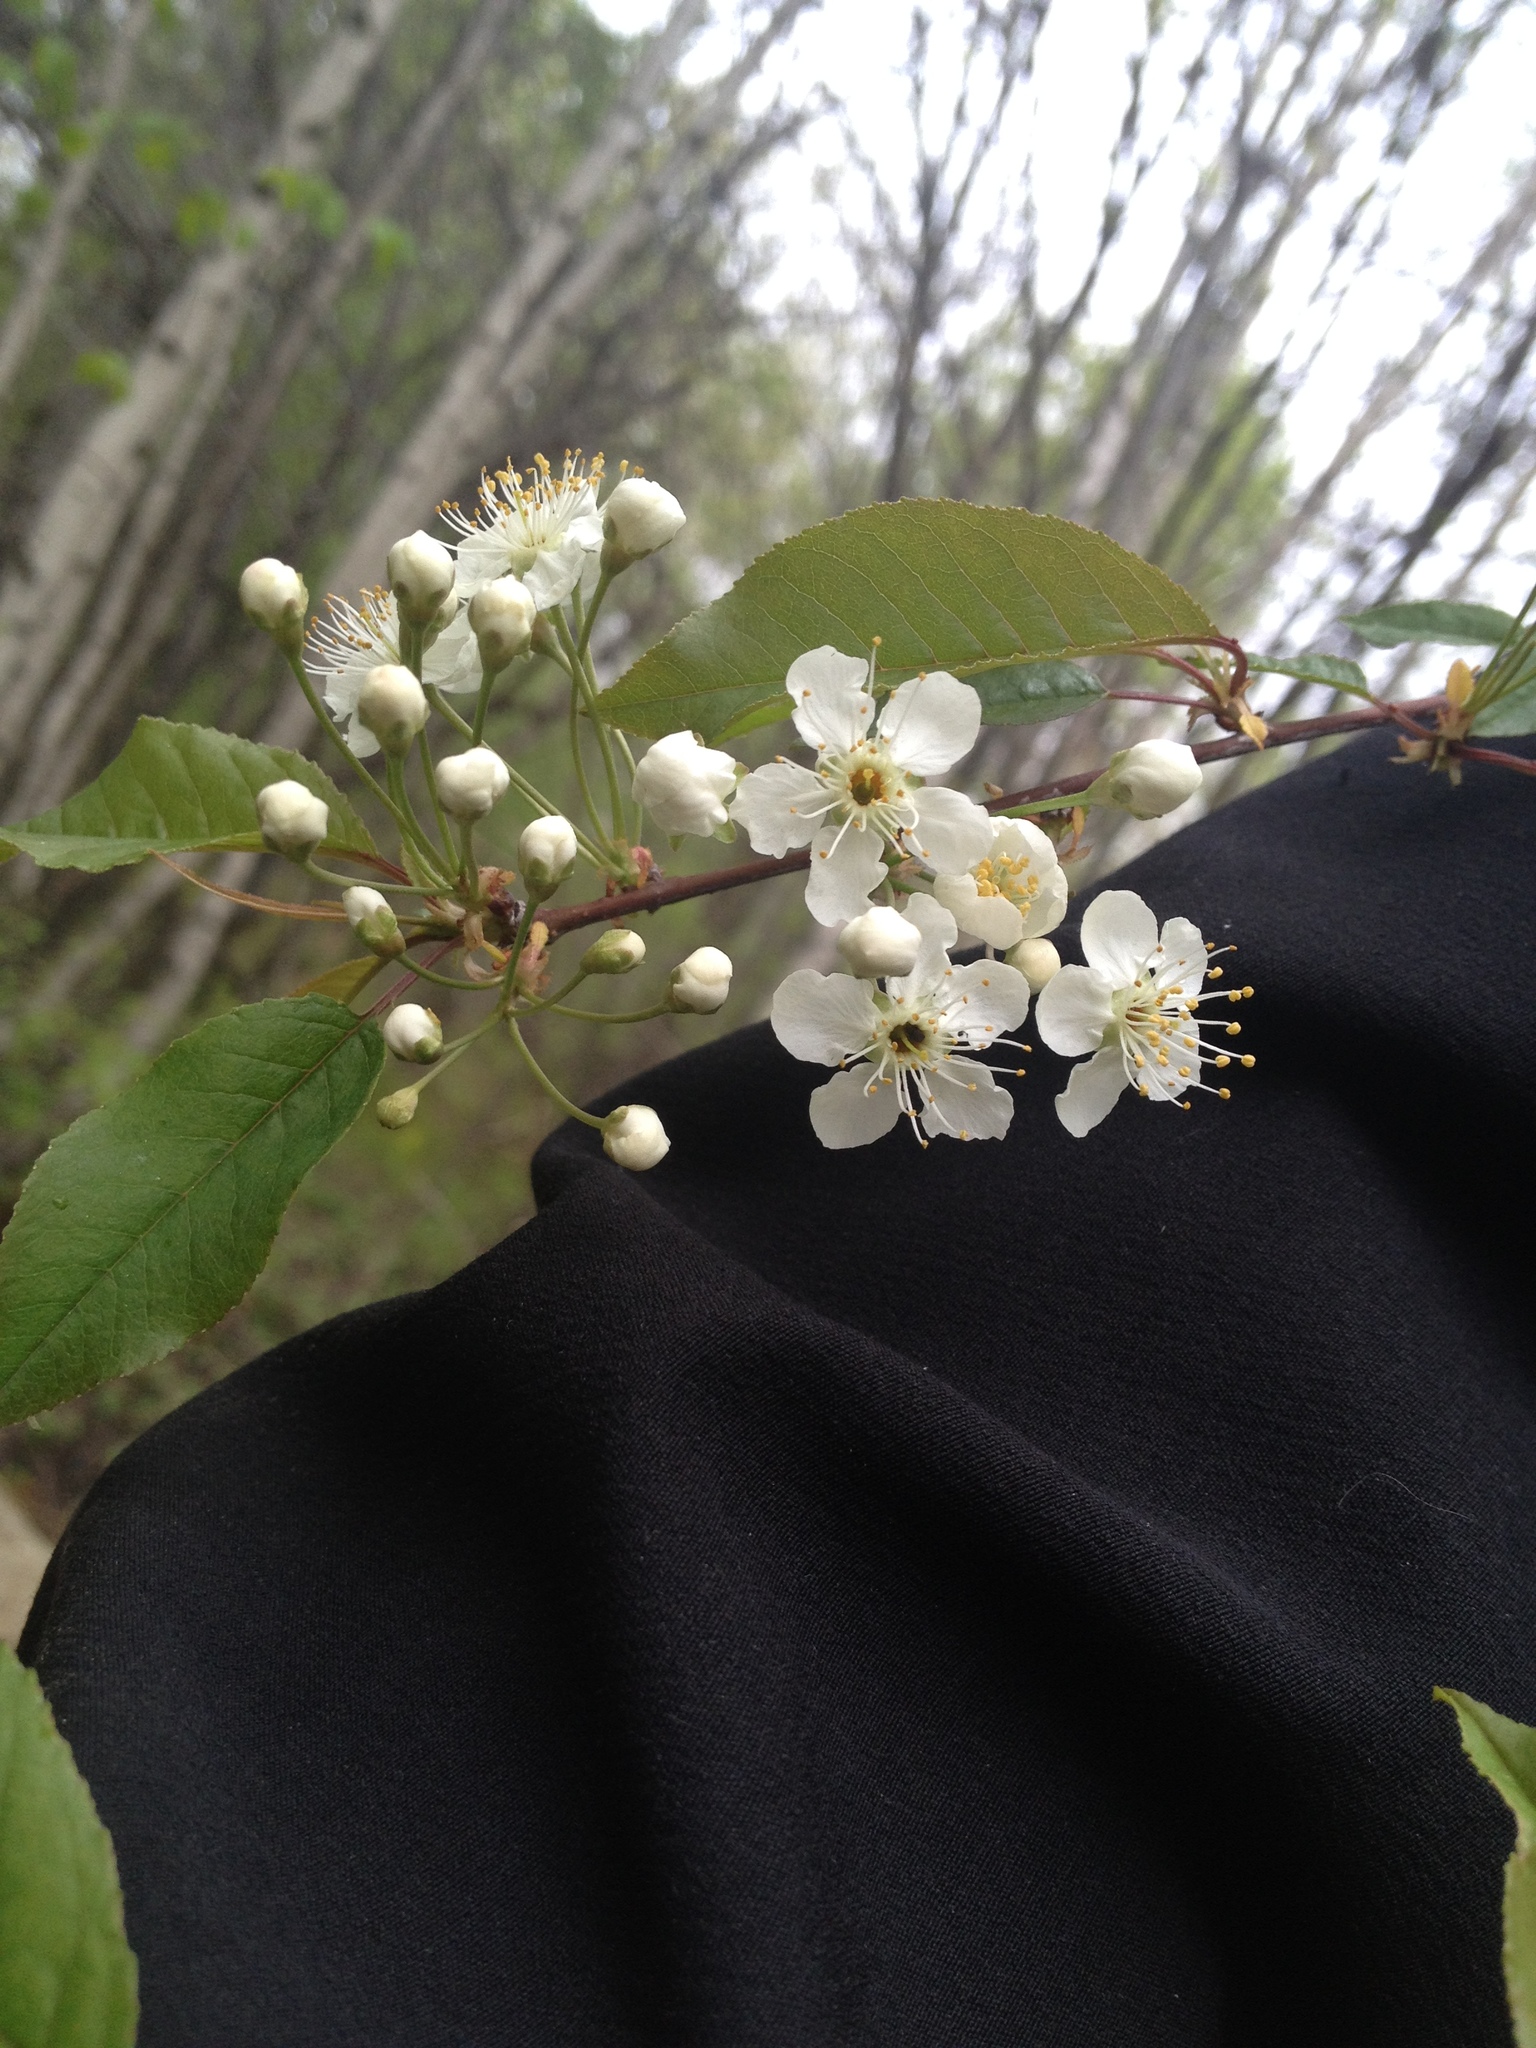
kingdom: Plantae
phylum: Tracheophyta
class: Magnoliopsida
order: Rosales
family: Rosaceae
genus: Prunus
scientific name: Prunus pensylvanica
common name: Pin cherry
